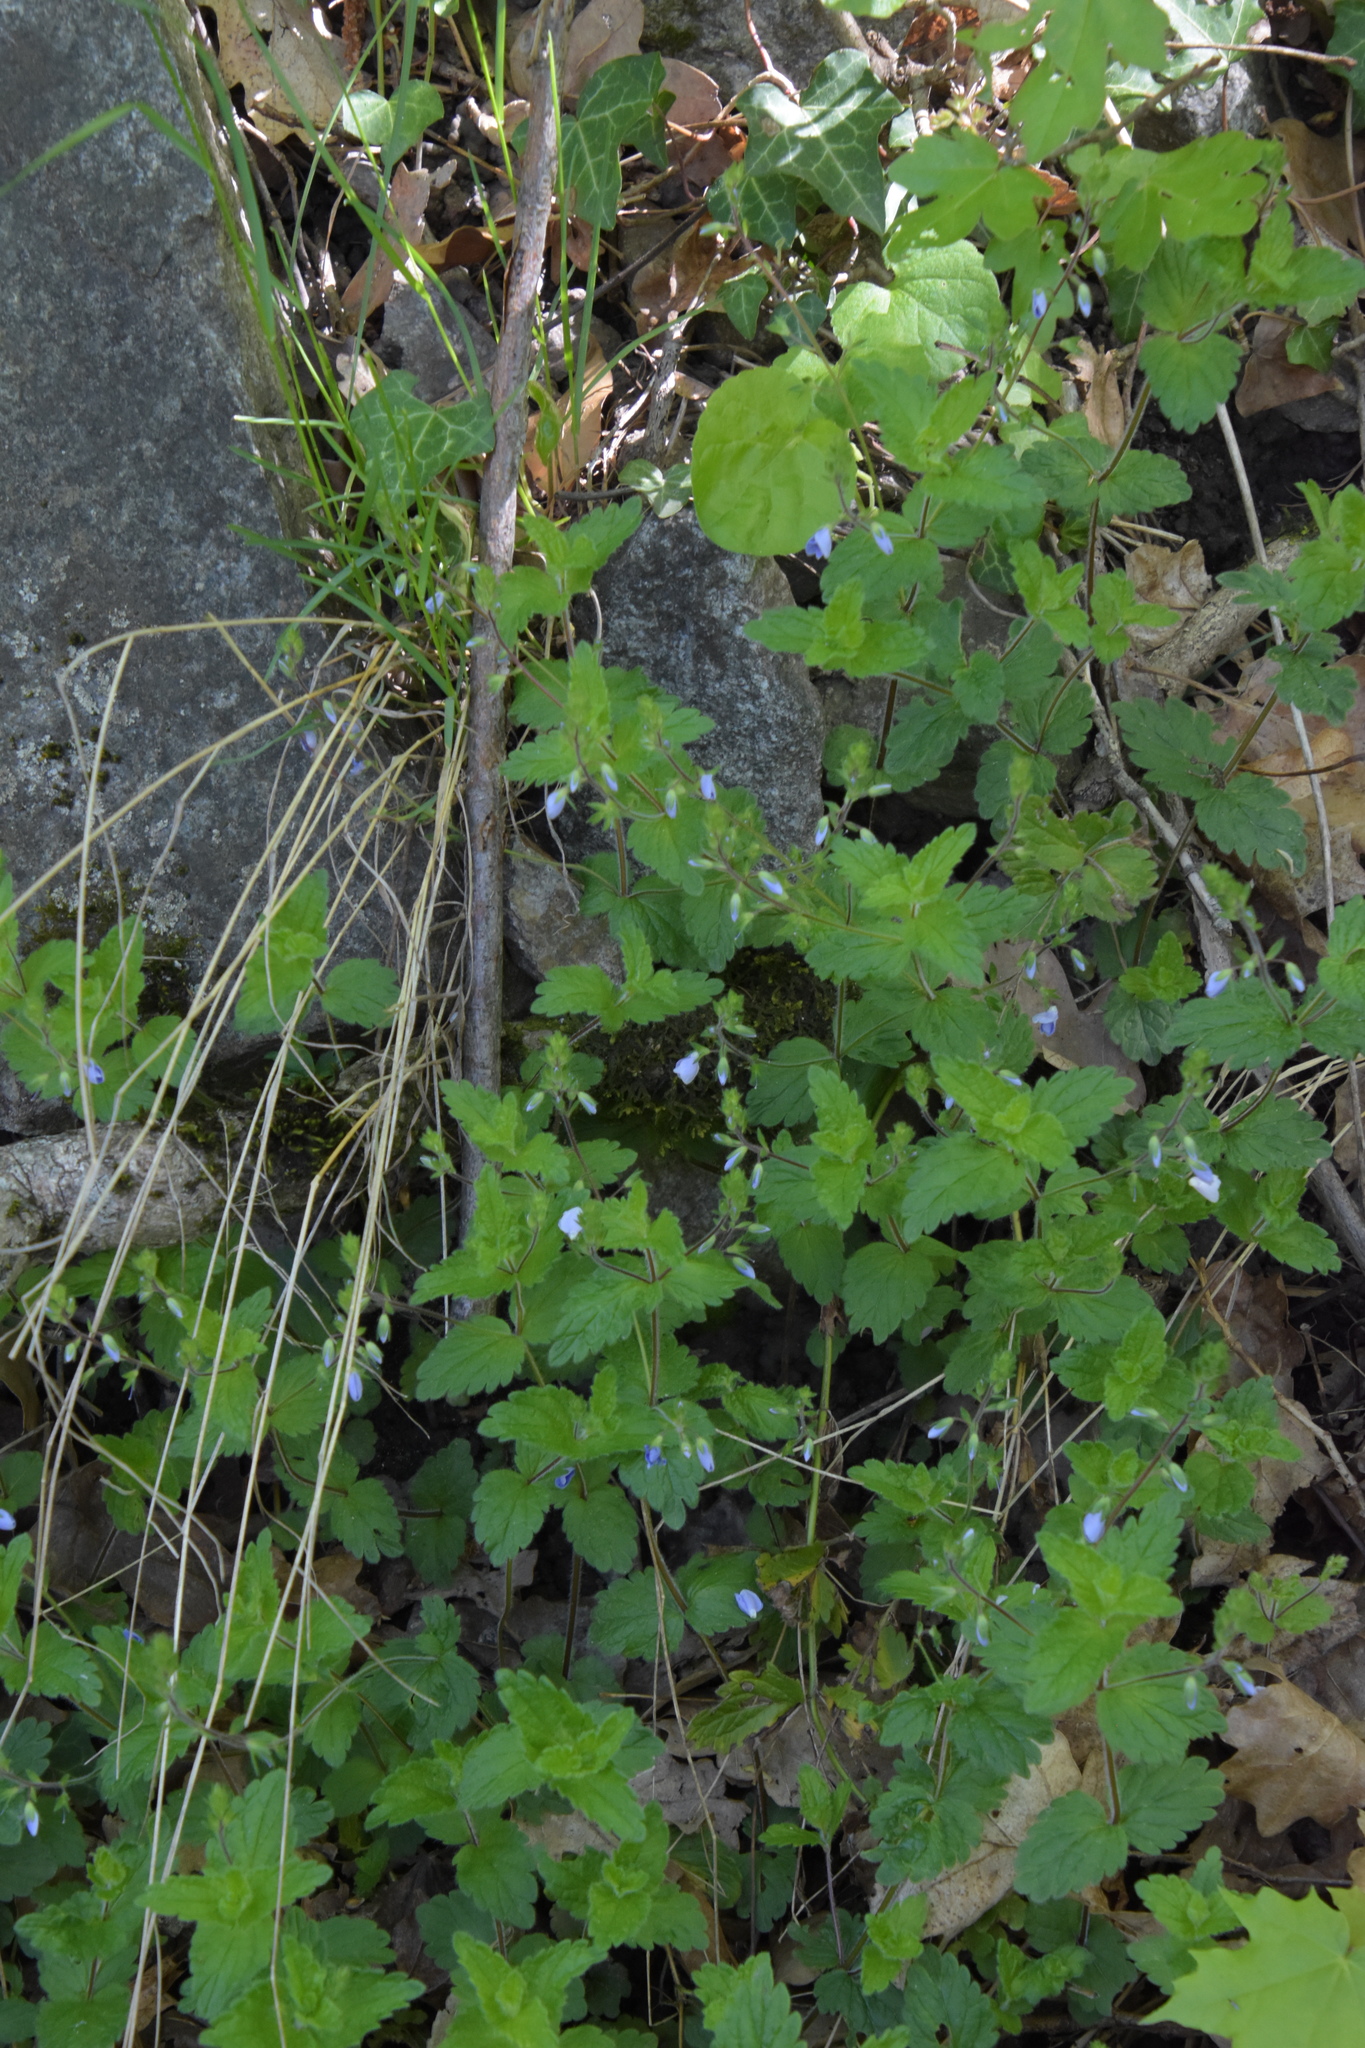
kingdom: Plantae
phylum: Tracheophyta
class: Magnoliopsida
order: Lamiales
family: Plantaginaceae
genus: Veronica
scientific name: Veronica chamaedrys
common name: Germander speedwell
